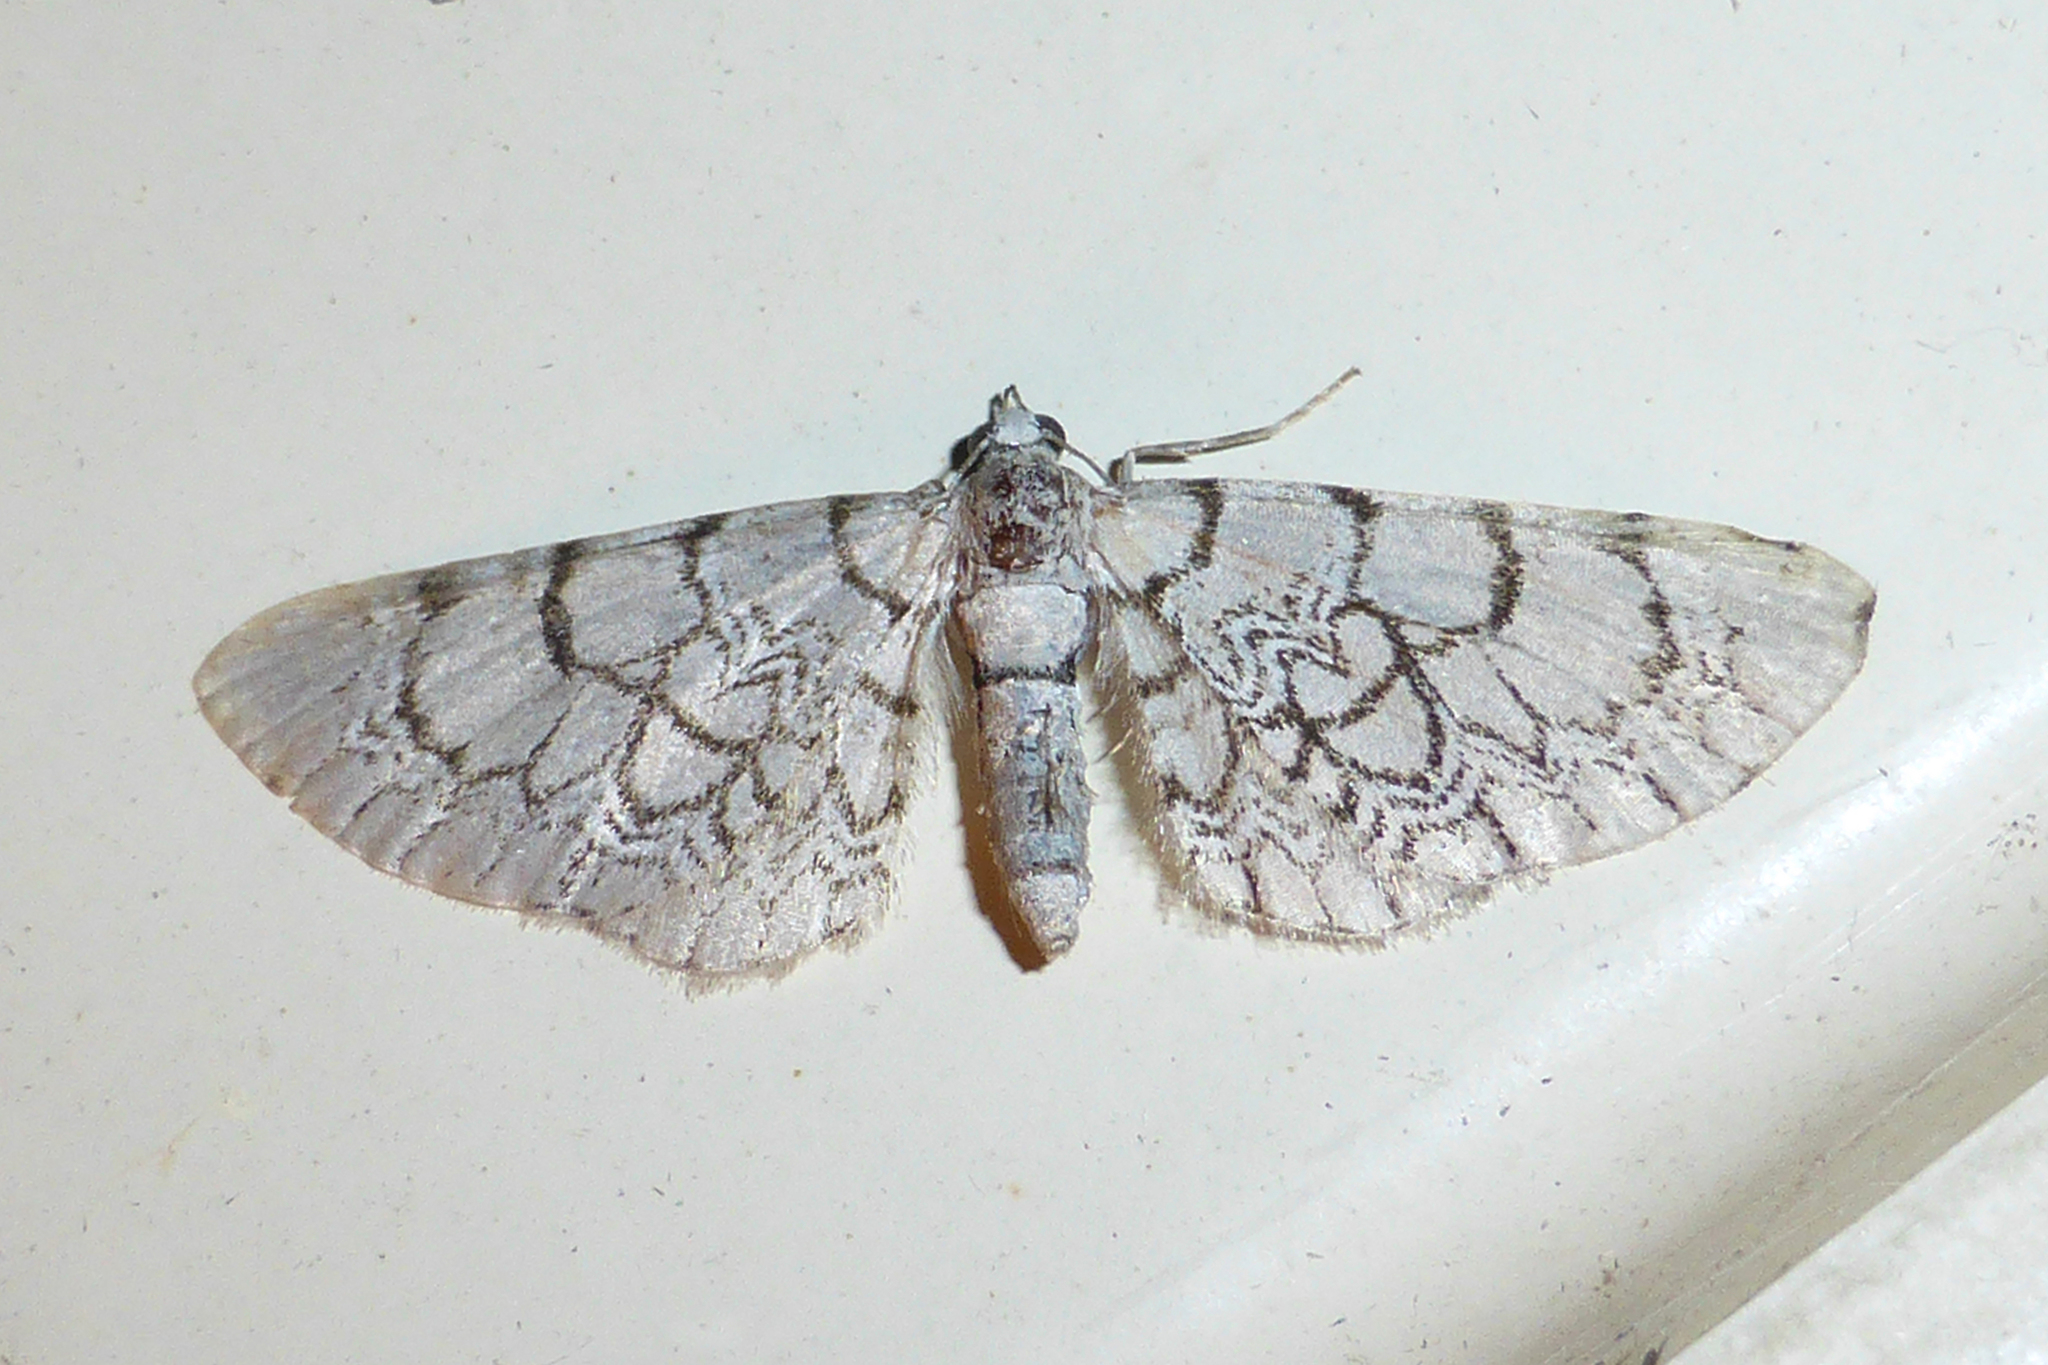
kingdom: Animalia
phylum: Arthropoda
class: Insecta
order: Lepidoptera
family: Geometridae
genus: Eupithecia
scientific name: Eupithecia venosata
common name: Netted pug
